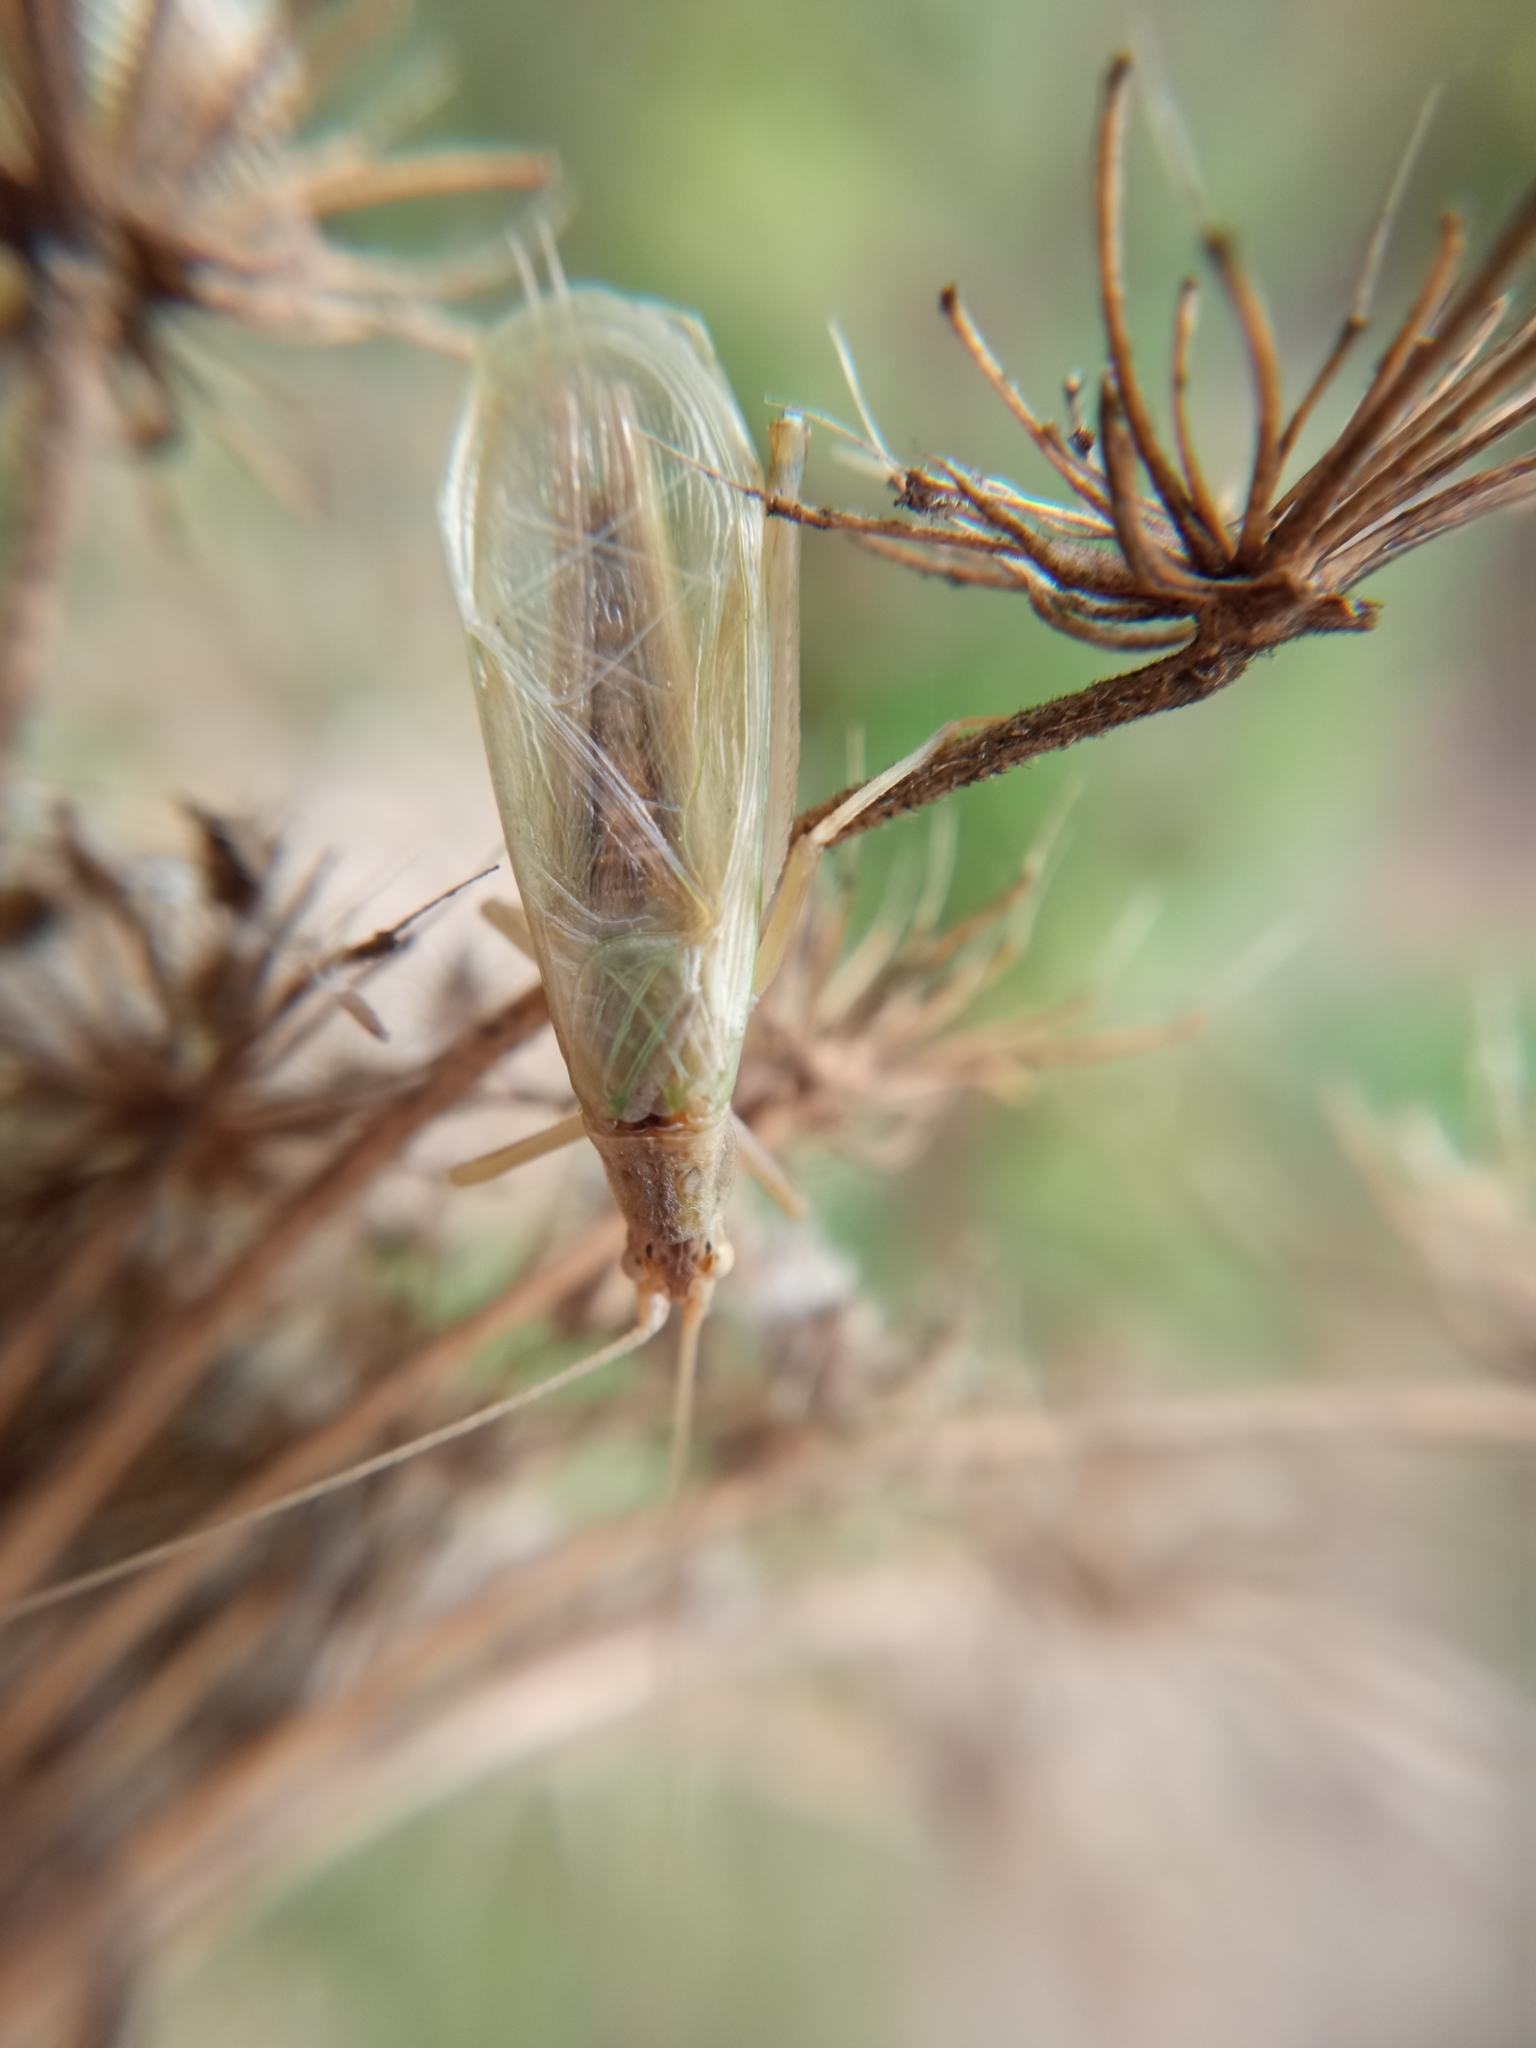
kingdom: Animalia
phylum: Arthropoda
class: Insecta
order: Orthoptera
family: Gryllidae
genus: Oecanthus
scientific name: Oecanthus pellucens
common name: Tree-cricket
